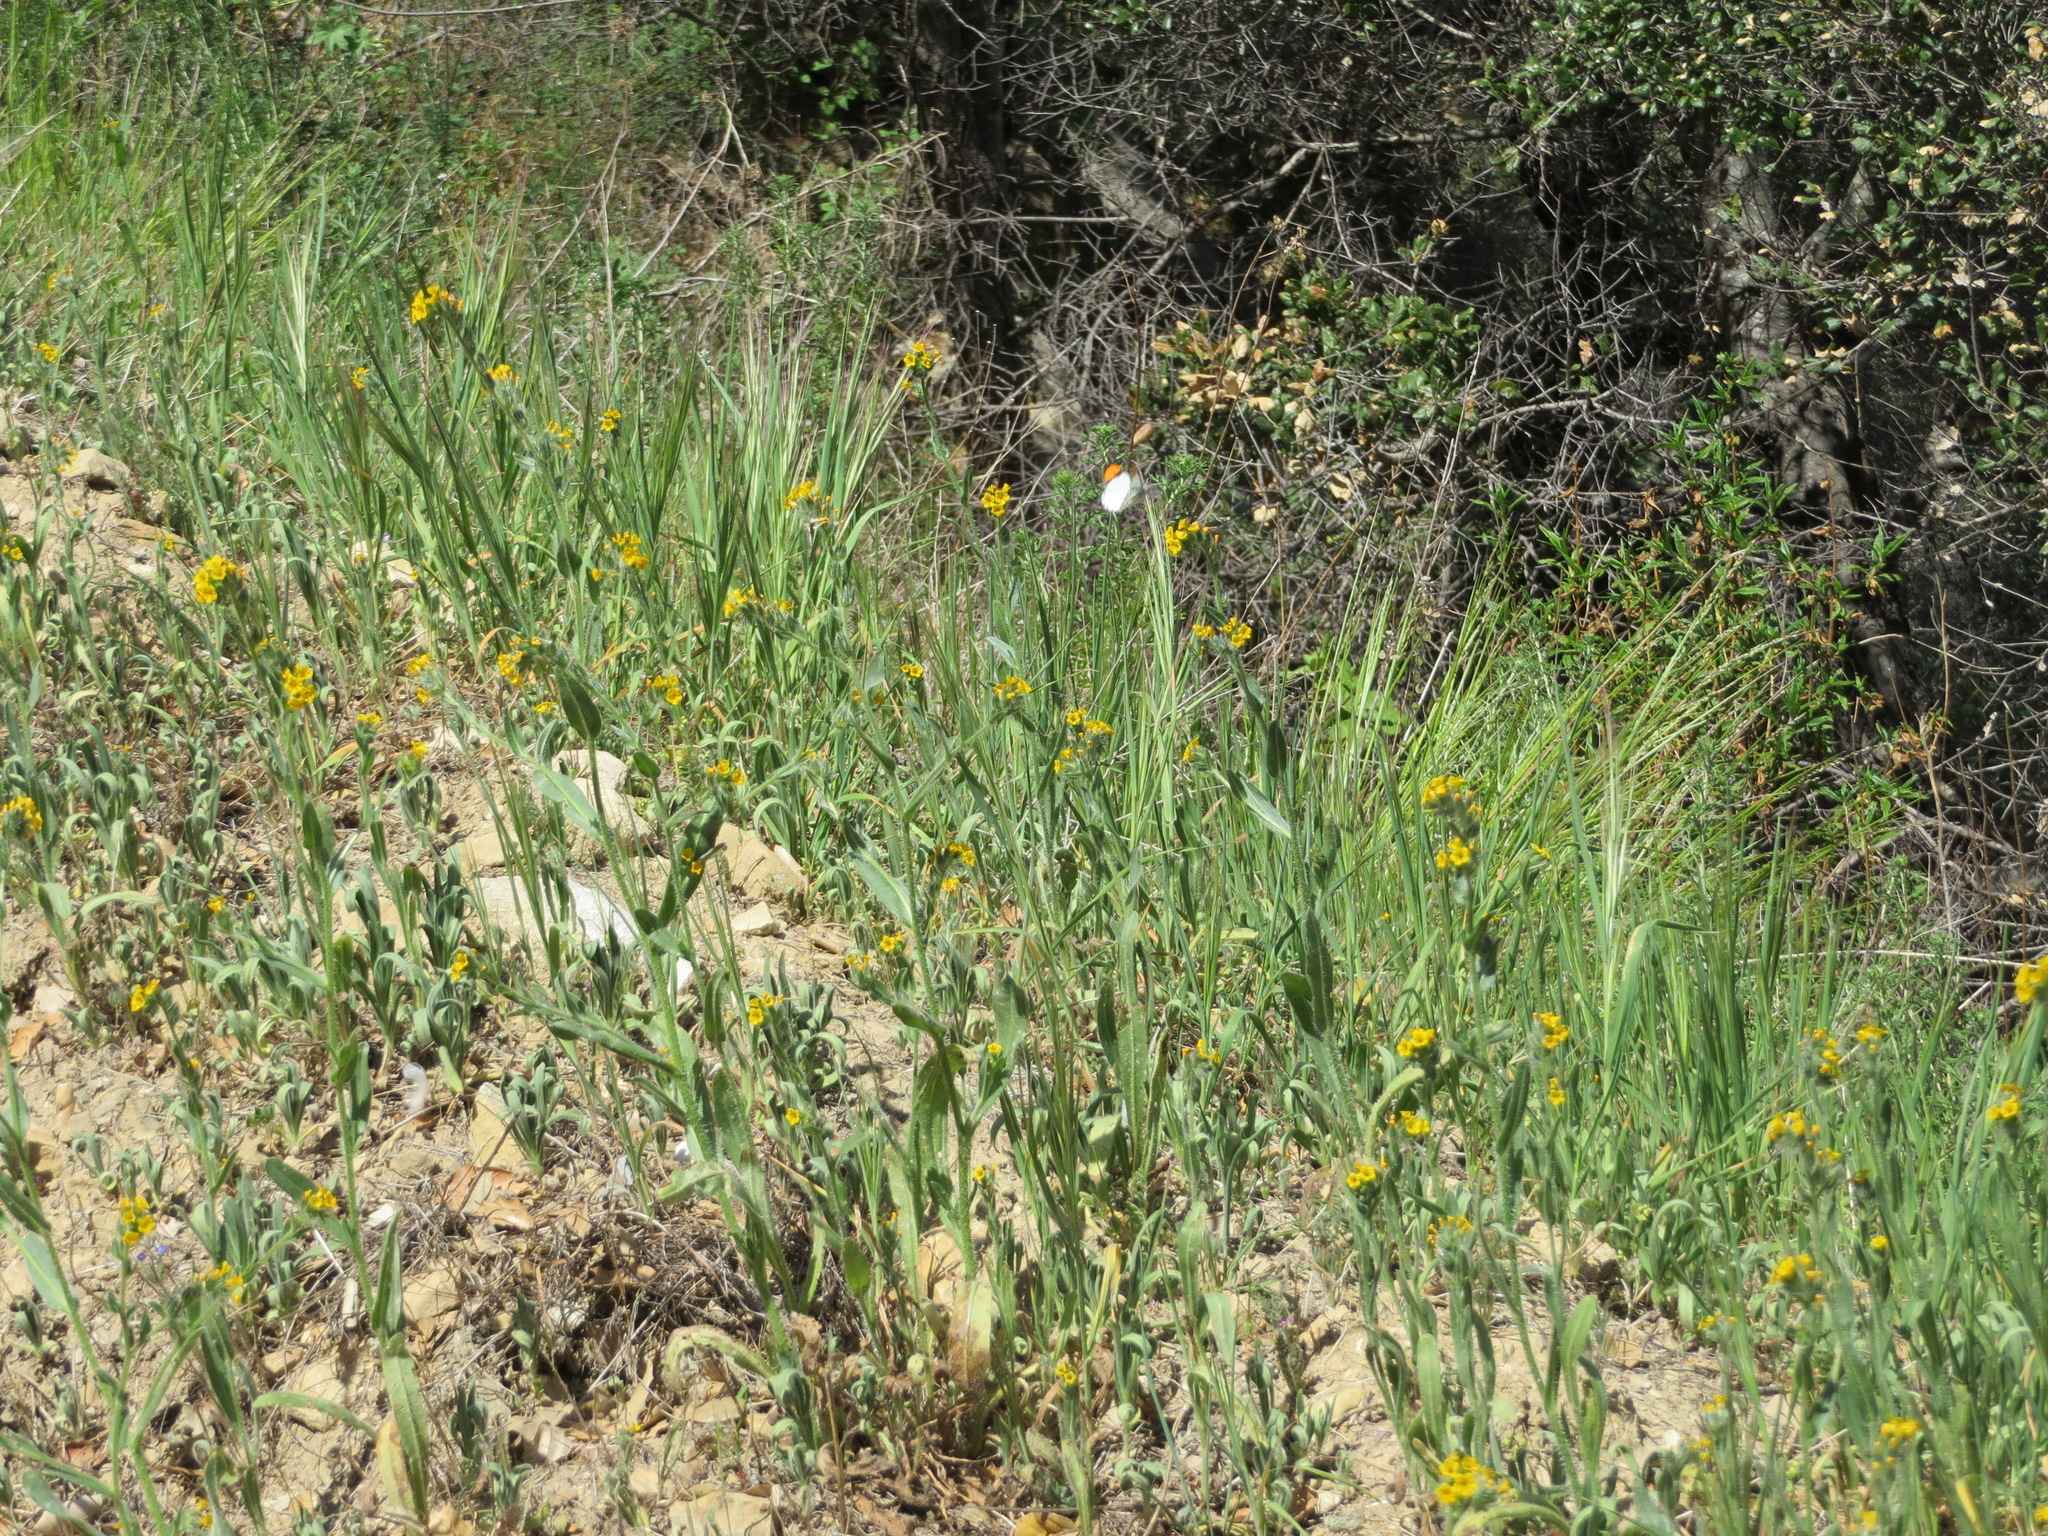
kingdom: Animalia
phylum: Arthropoda
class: Insecta
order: Lepidoptera
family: Pieridae
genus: Anthocharis
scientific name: Anthocharis sara
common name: Sara's orangetip
